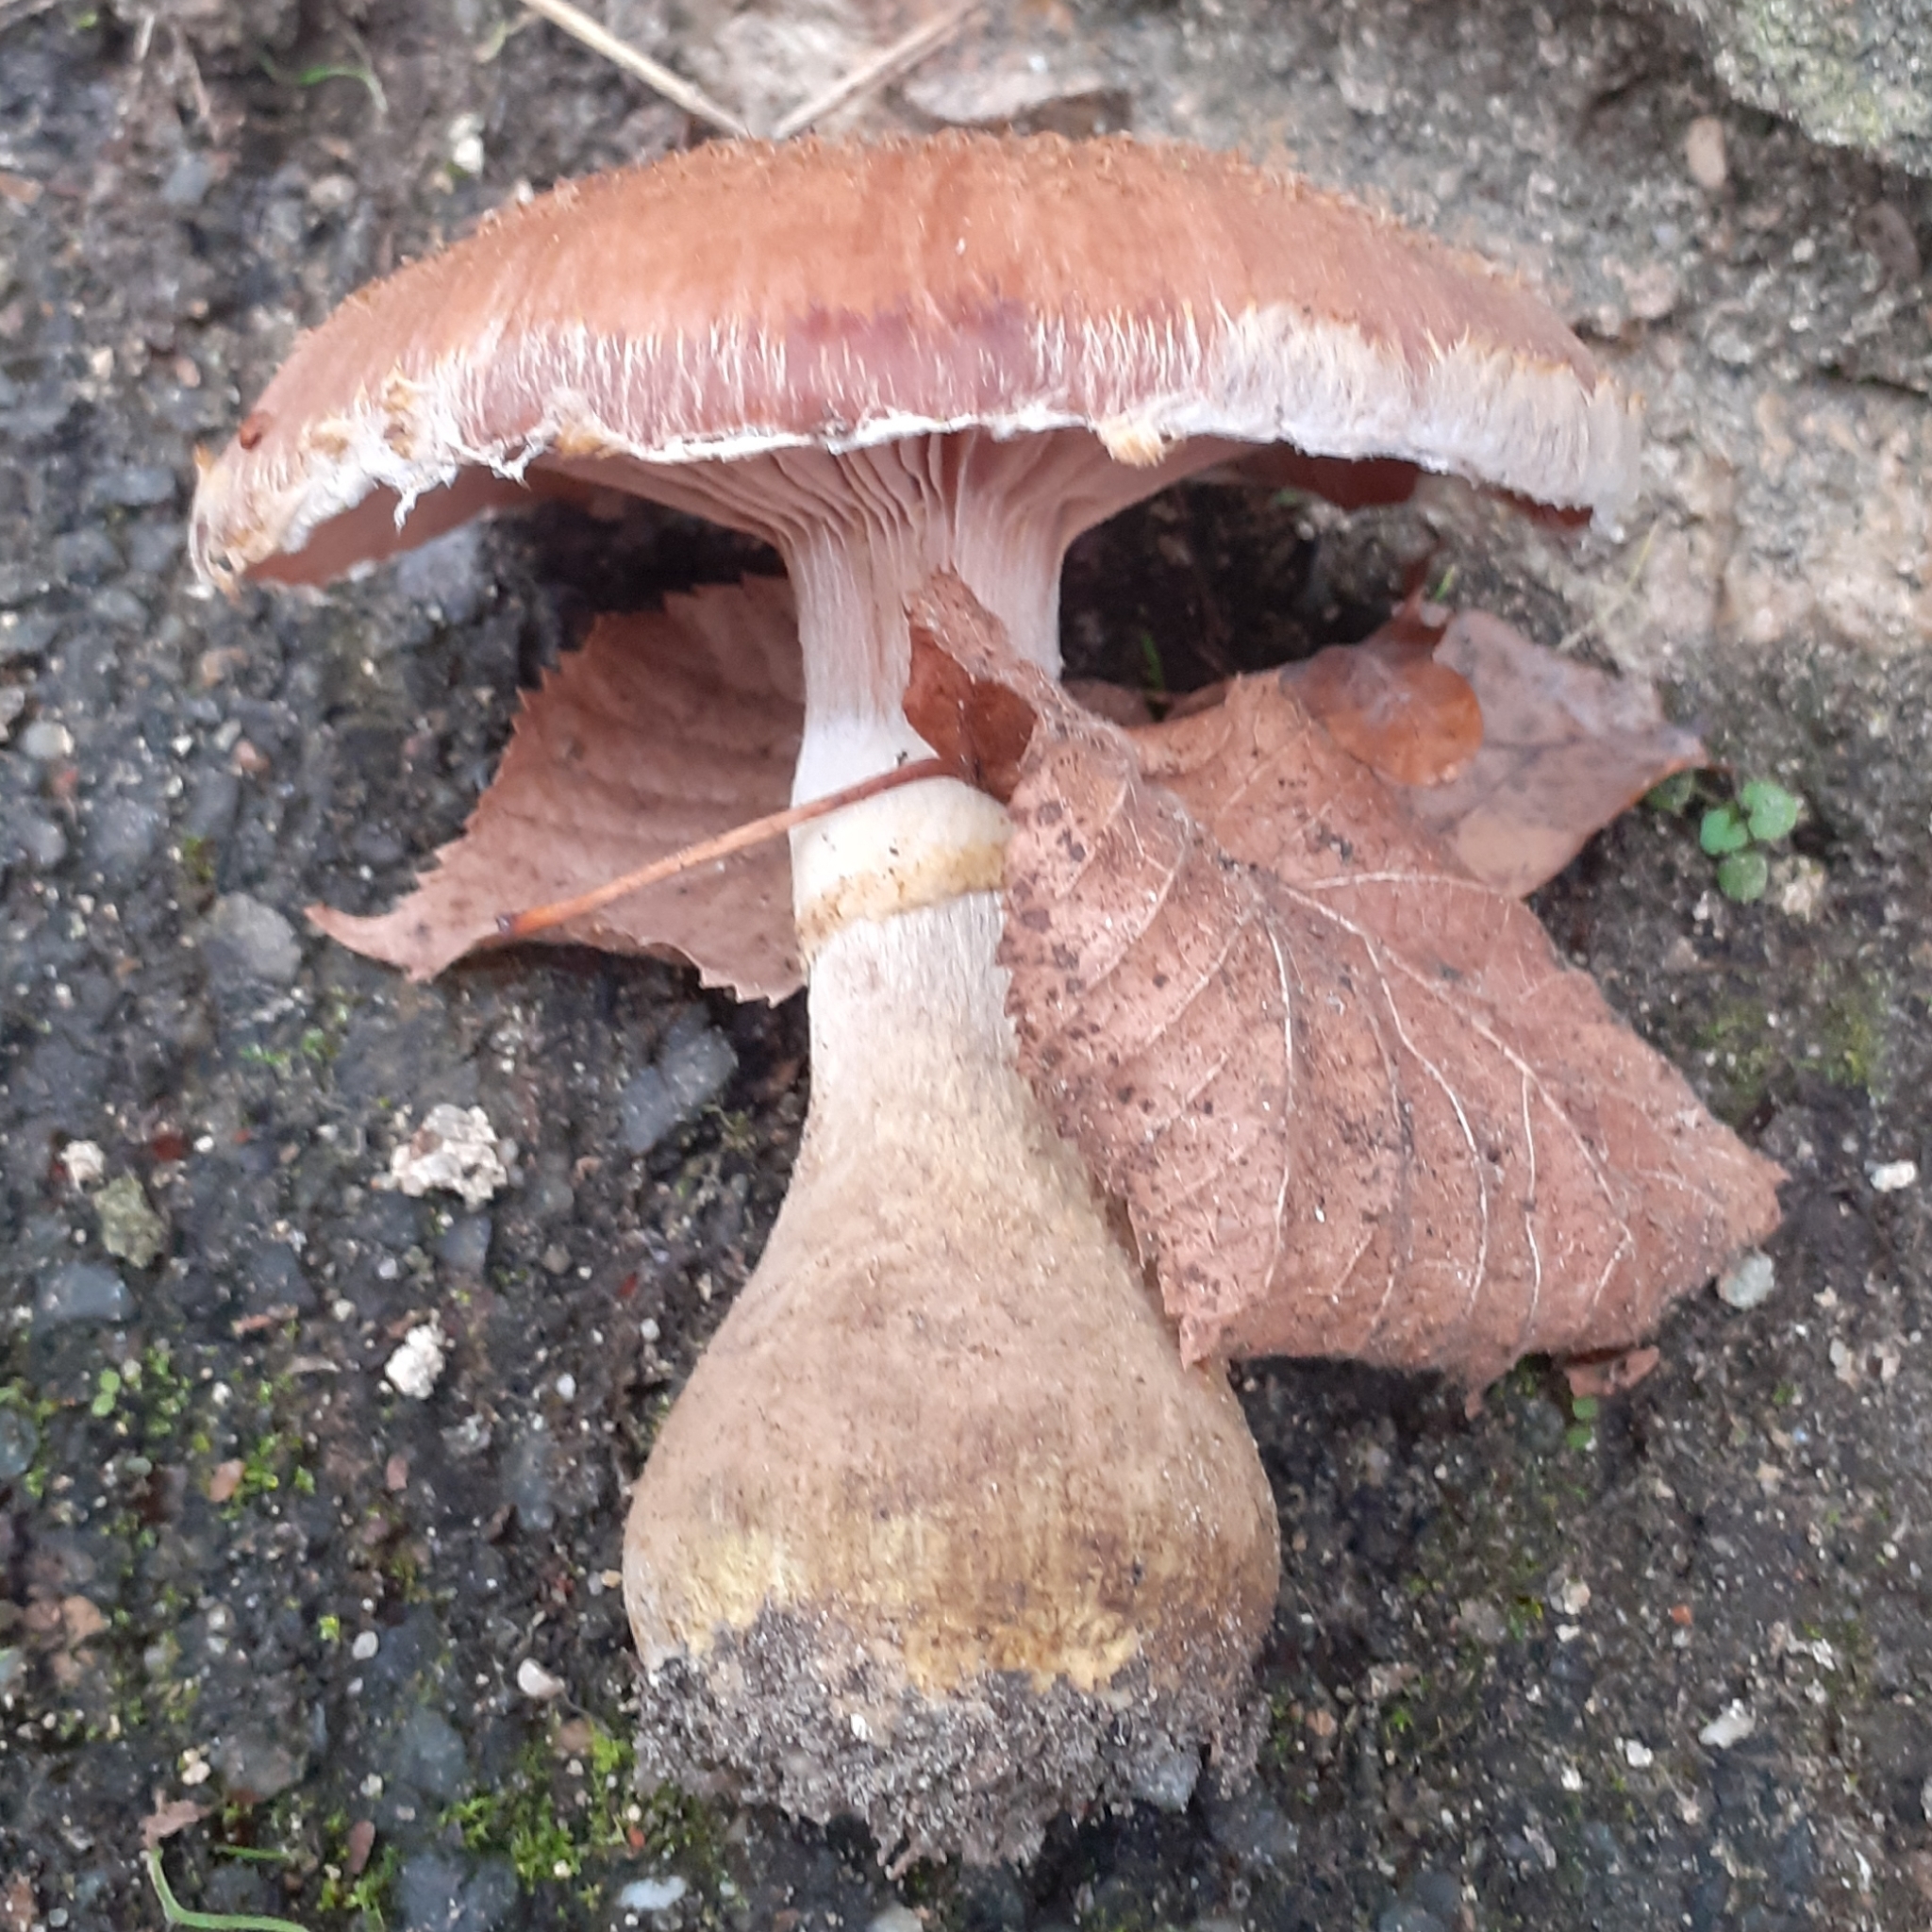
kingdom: Fungi
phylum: Basidiomycota
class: Agaricomycetes
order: Agaricales
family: Physalacriaceae
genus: Armillaria
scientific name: Armillaria gallica
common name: Bulbous honey fungus
